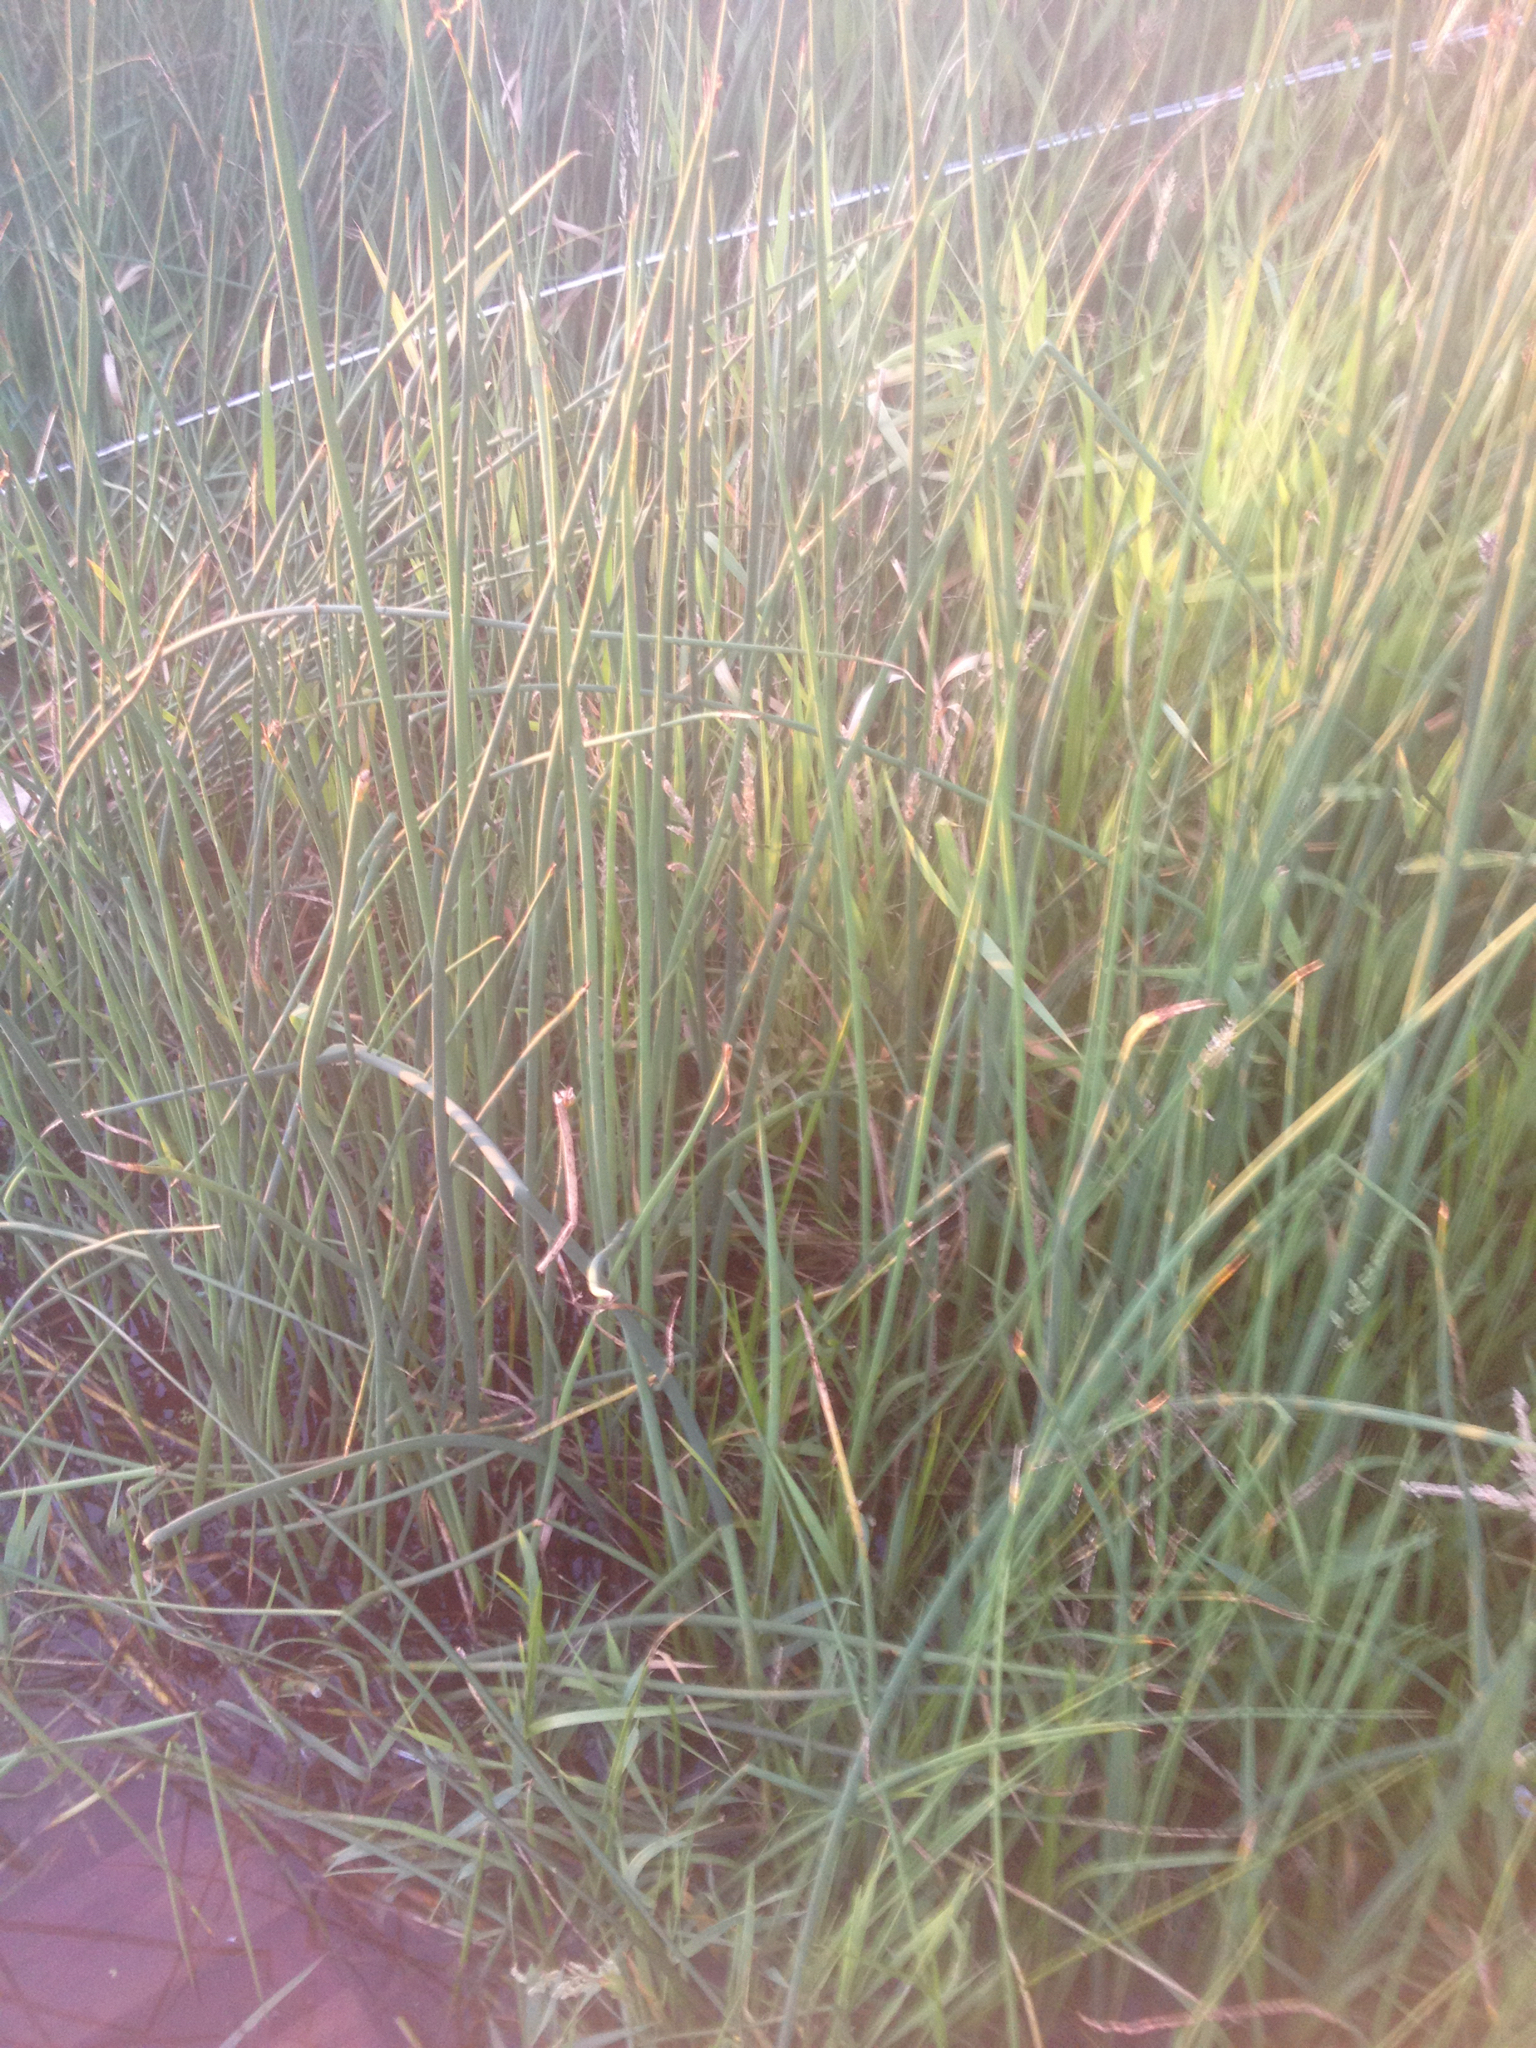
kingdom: Plantae
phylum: Tracheophyta
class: Liliopsida
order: Poales
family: Cyperaceae
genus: Schoenoplectus
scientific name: Schoenoplectus tabernaemontani
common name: Grey club-rush
